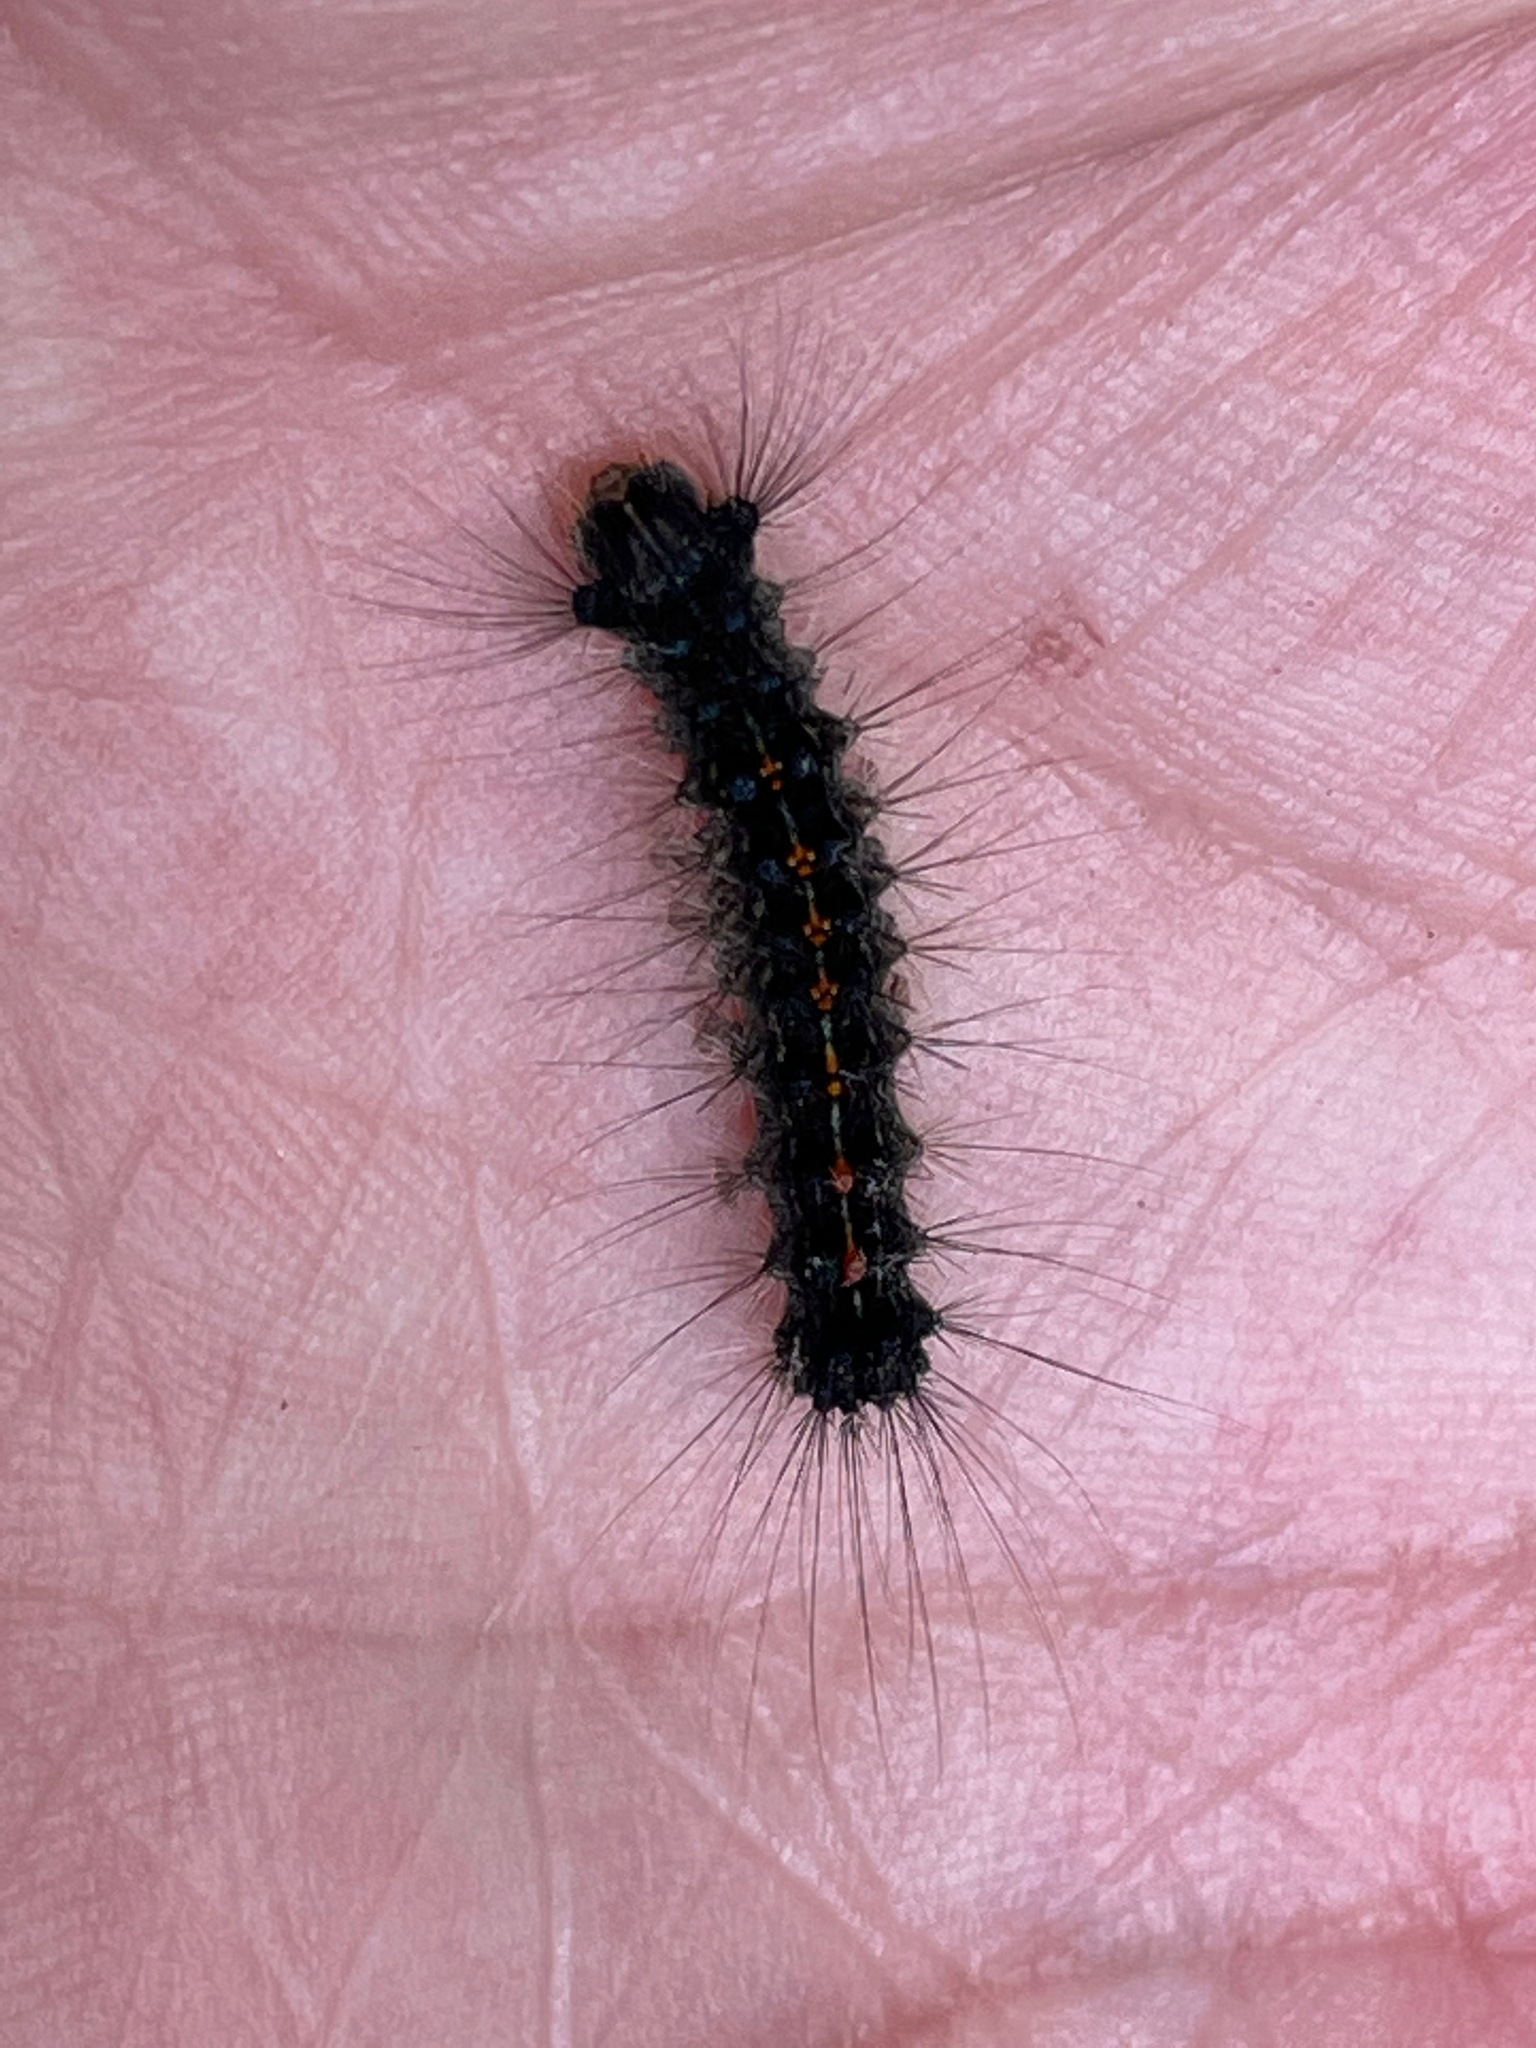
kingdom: Animalia
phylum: Arthropoda
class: Insecta
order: Lepidoptera
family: Erebidae
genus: Lymantria
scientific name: Lymantria dispar
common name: Gypsy moth
